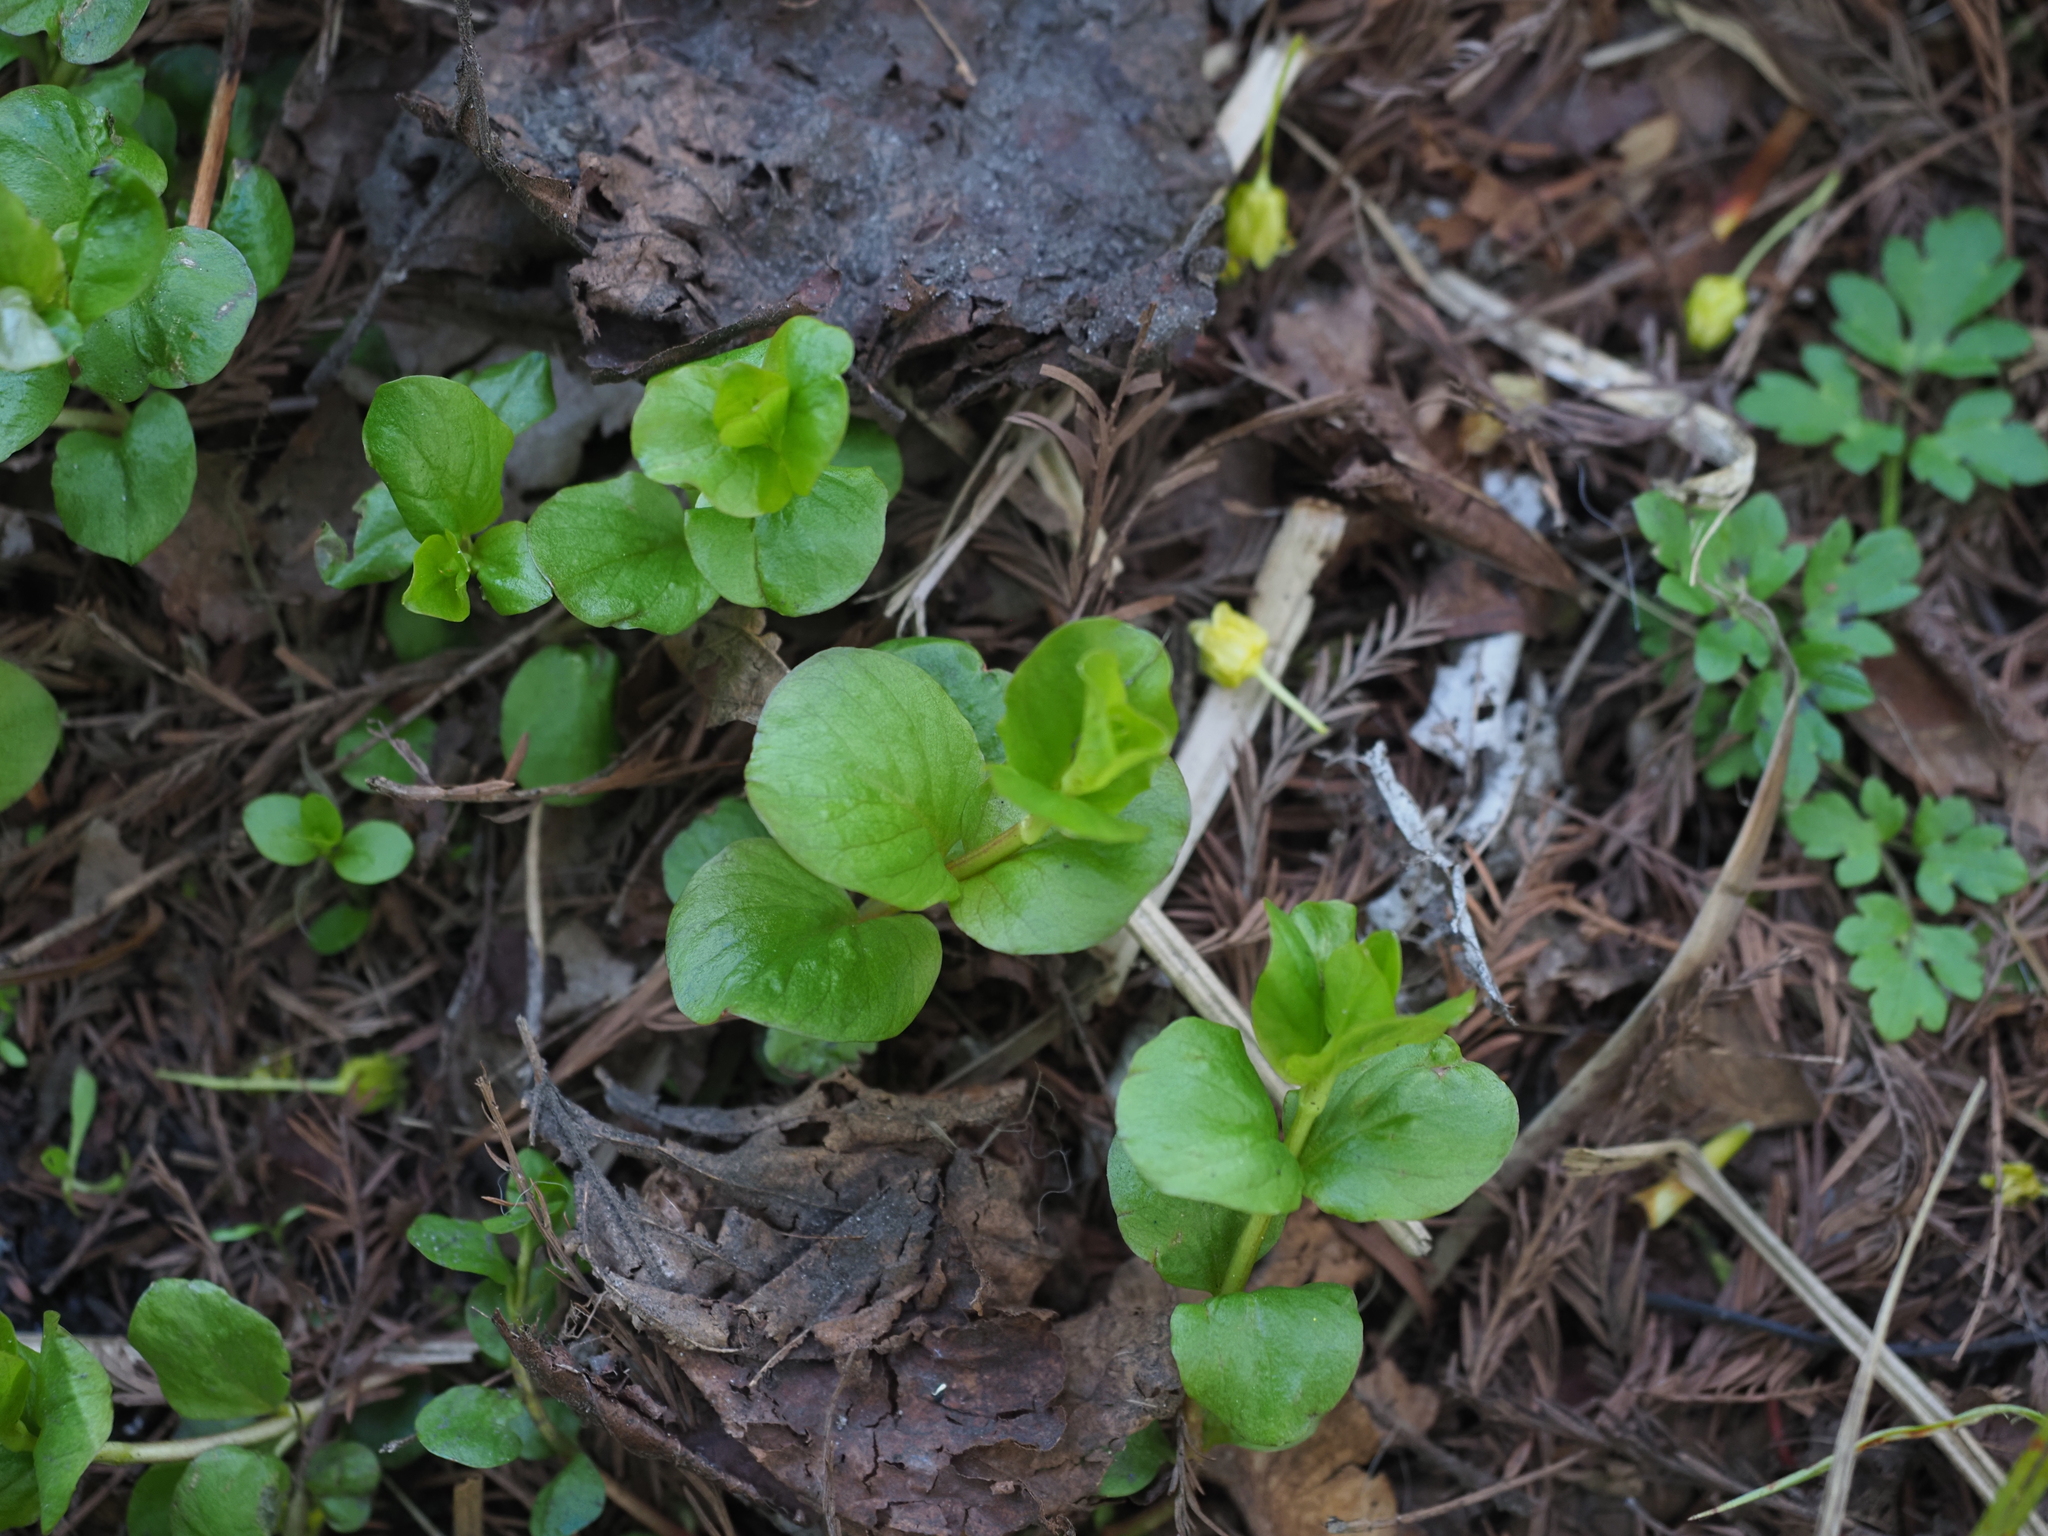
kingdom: Plantae
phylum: Tracheophyta
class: Magnoliopsida
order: Ericales
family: Primulaceae
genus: Lysimachia
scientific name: Lysimachia nummularia
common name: Moneywort
